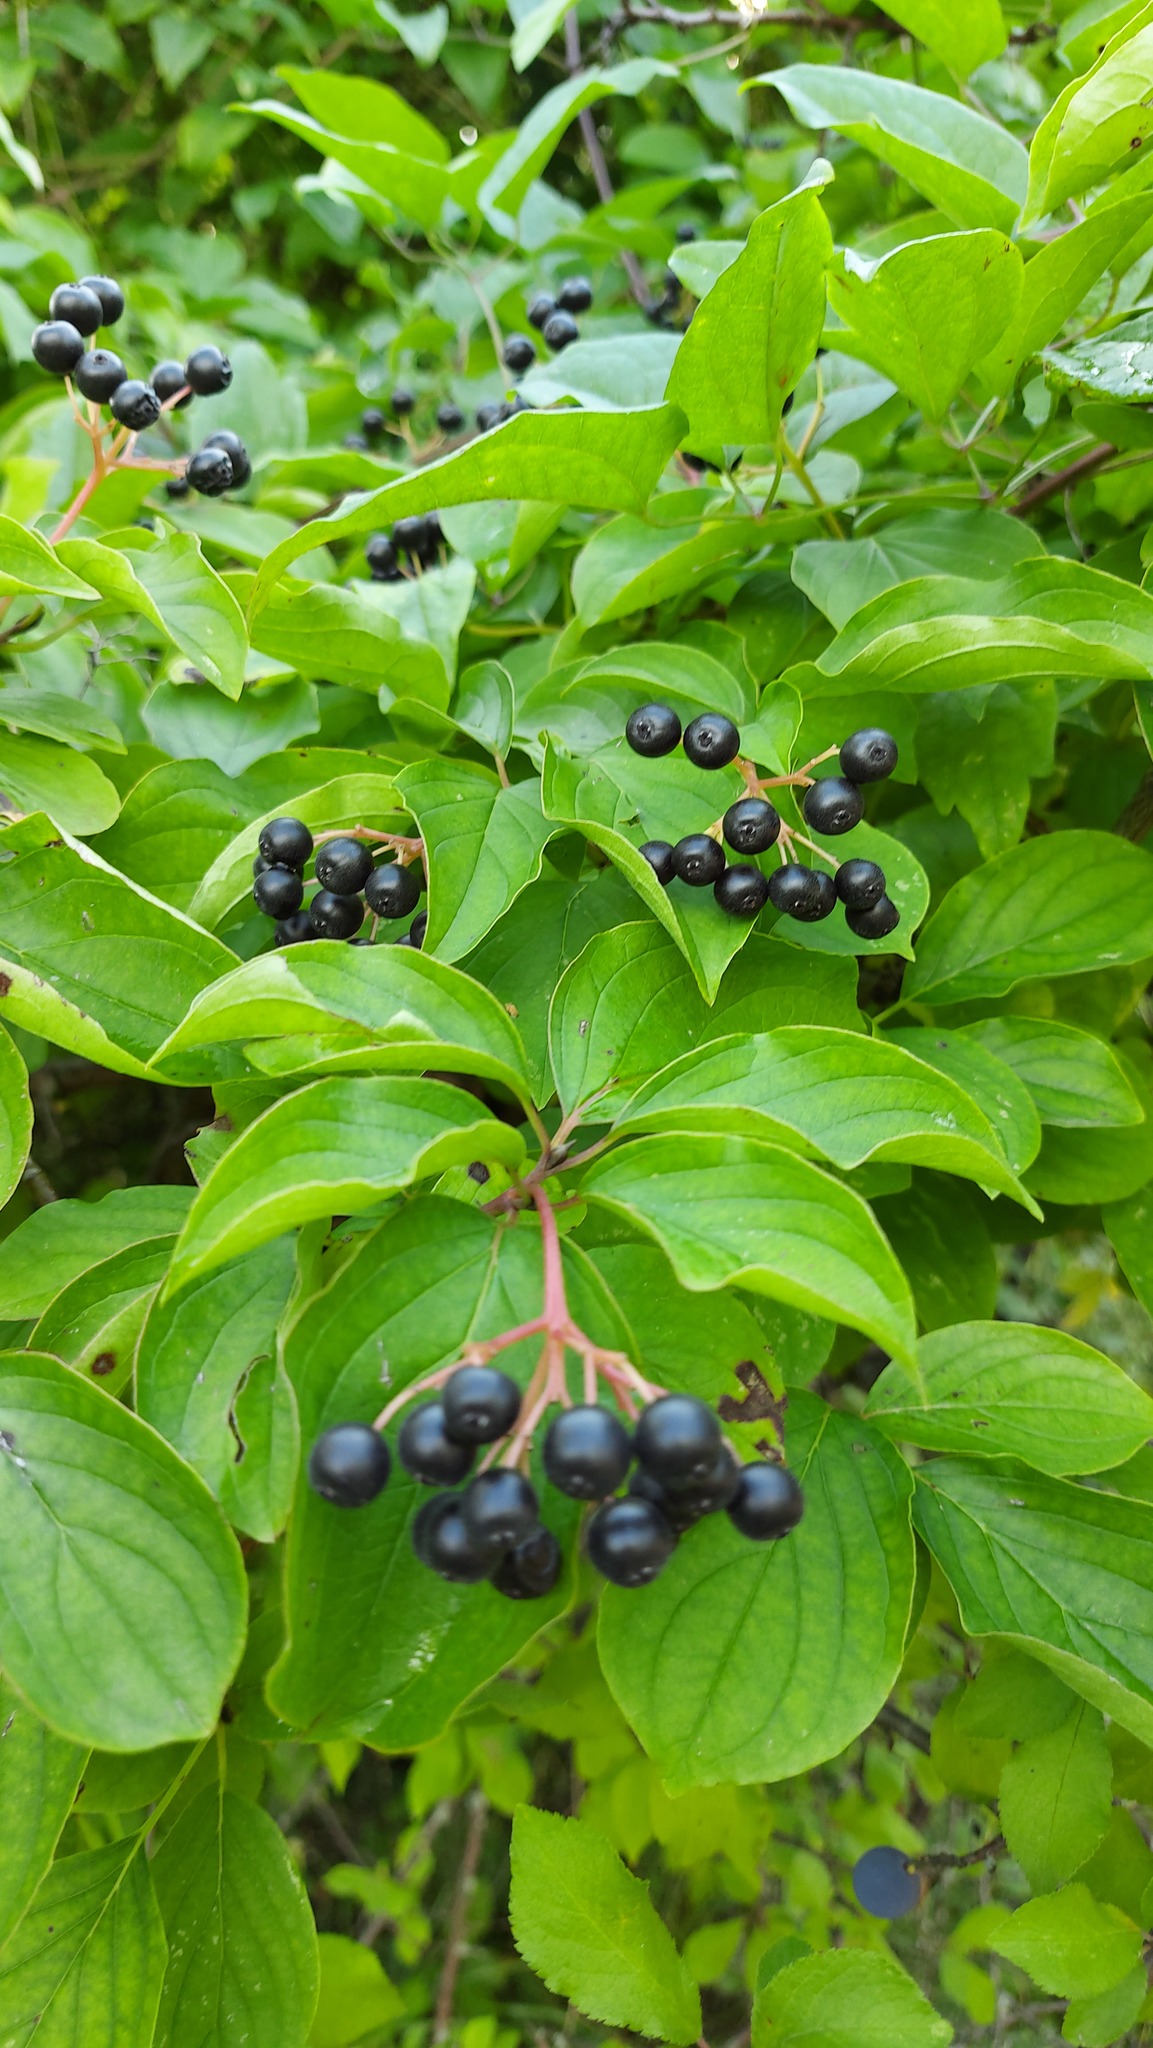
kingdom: Plantae
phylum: Tracheophyta
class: Magnoliopsida
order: Cornales
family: Cornaceae
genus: Cornus
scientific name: Cornus sanguinea
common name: Dogwood
